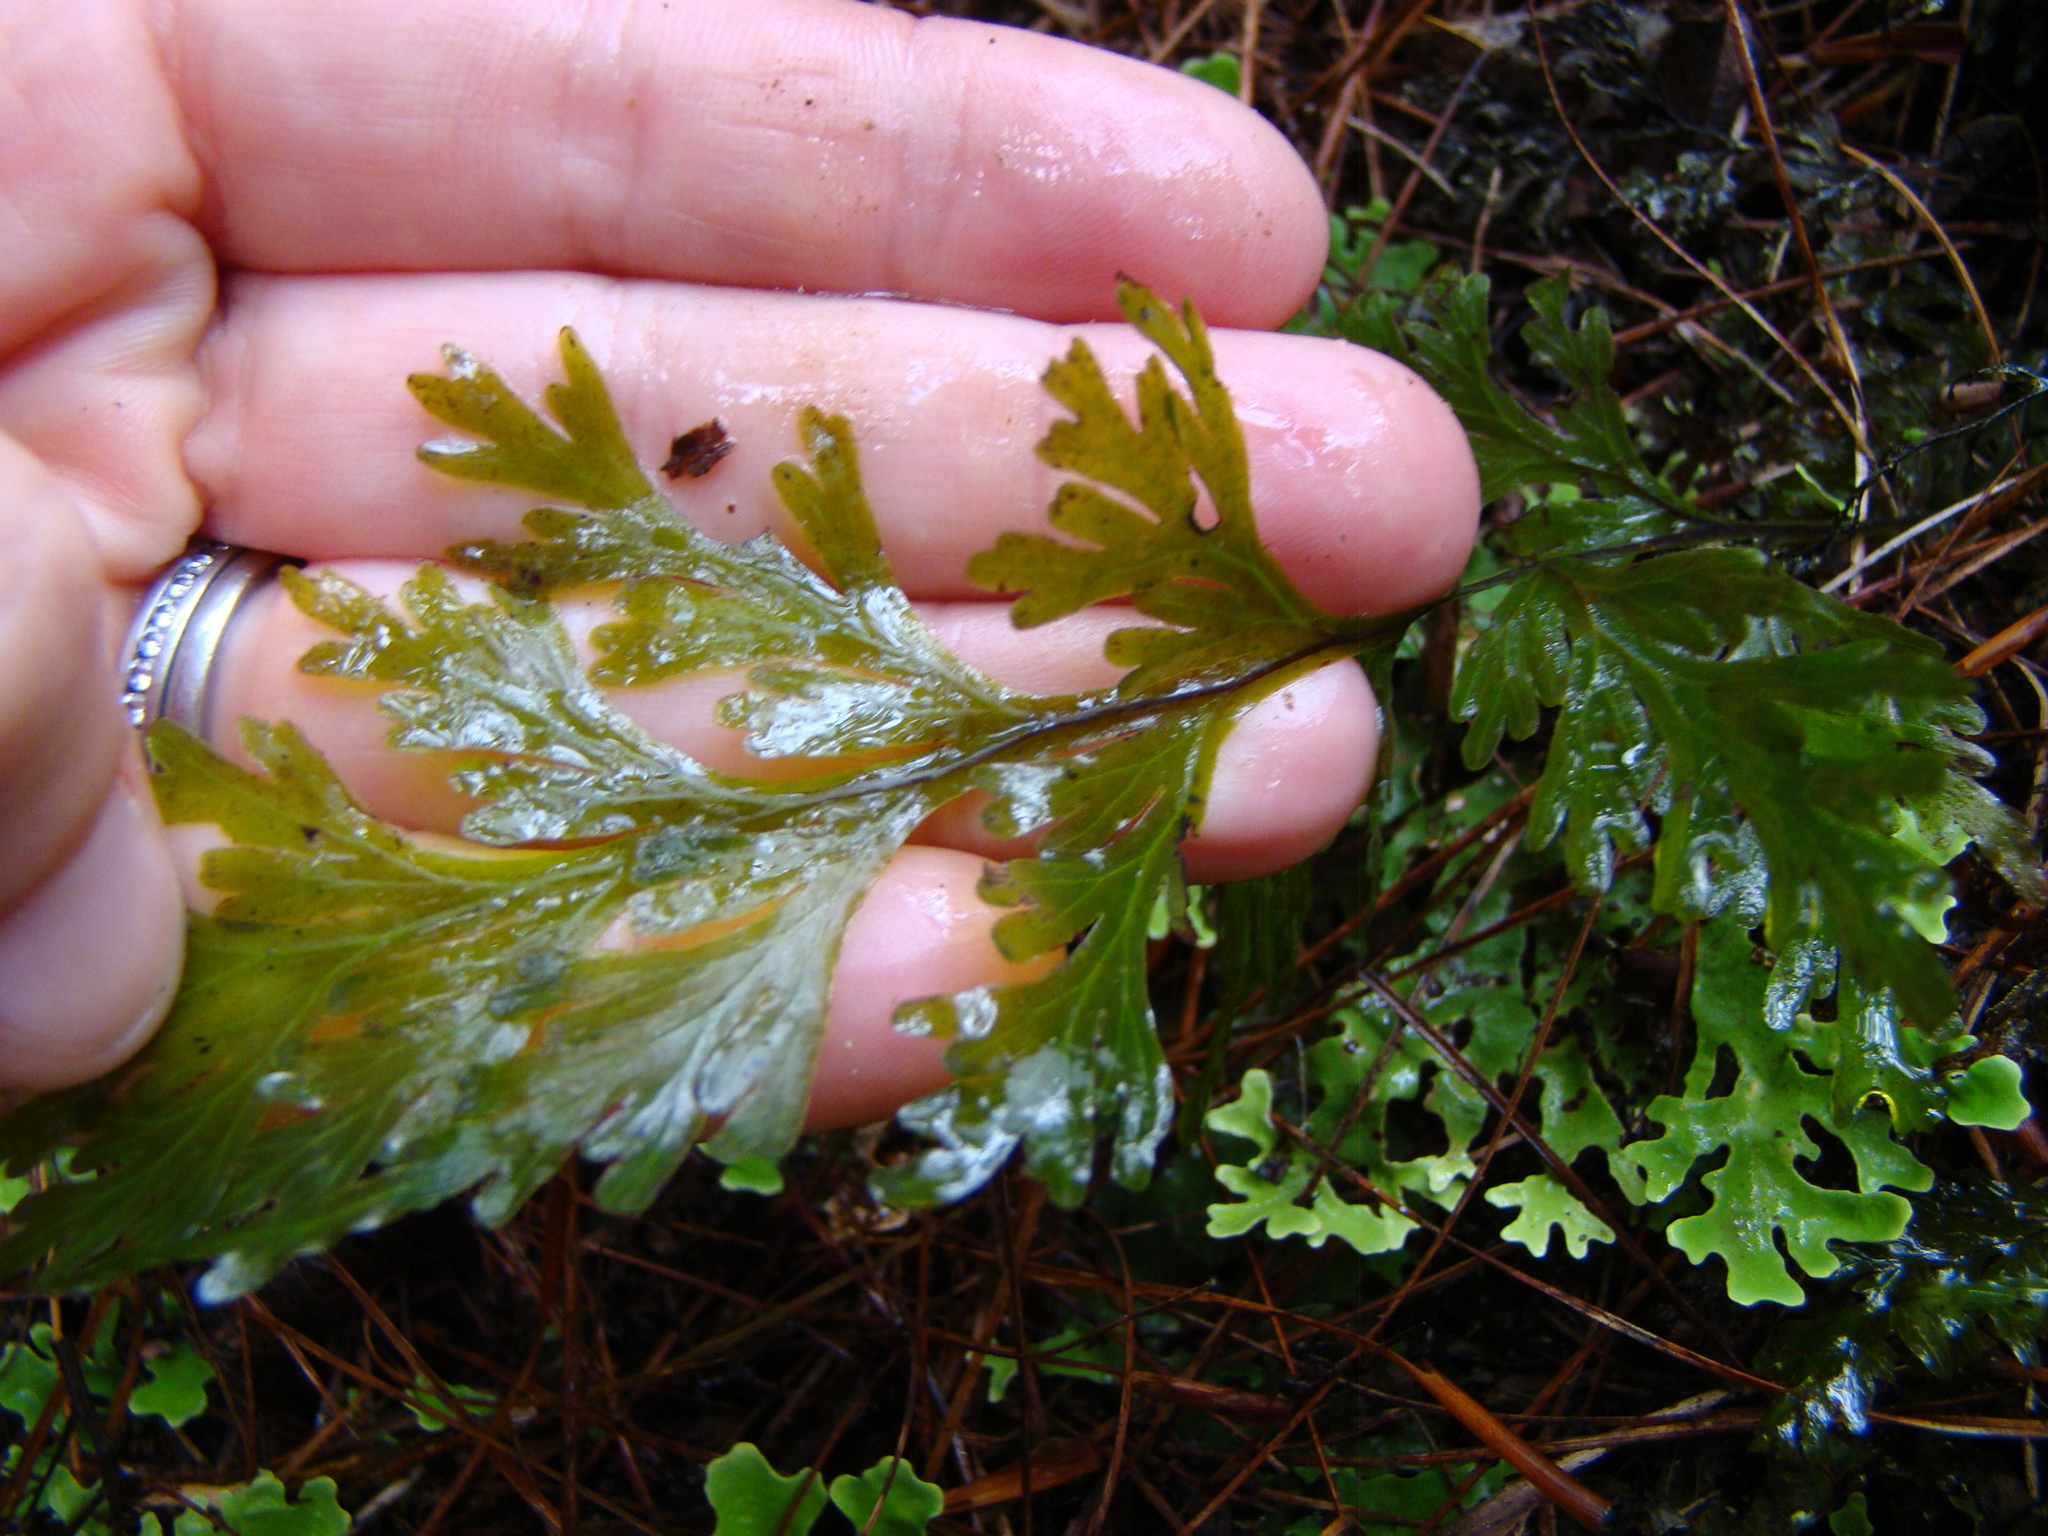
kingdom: Plantae
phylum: Tracheophyta
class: Polypodiopsida
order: Hymenophyllales
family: Hymenophyllaceae
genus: Hymenophyllum
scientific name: Hymenophyllum dilatatum
